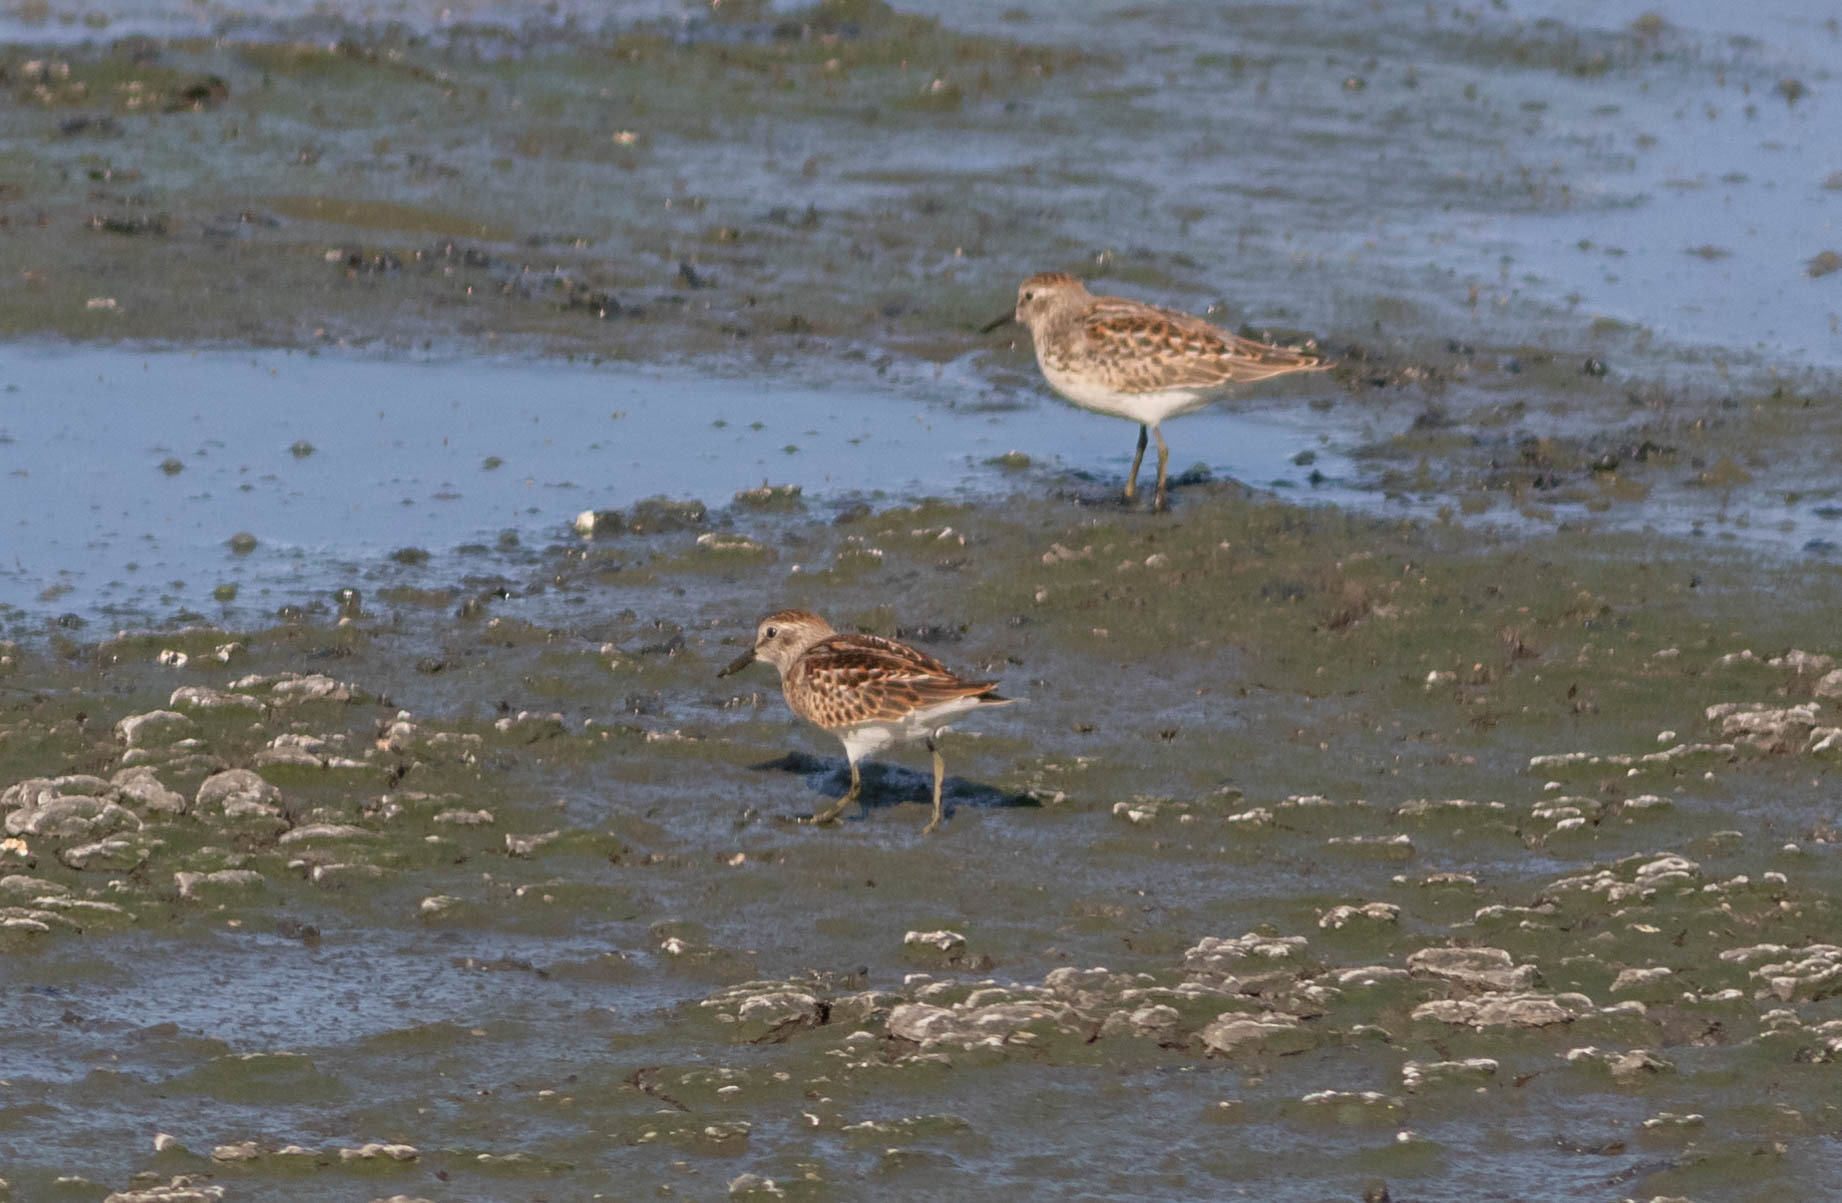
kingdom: Animalia
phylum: Chordata
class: Aves
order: Charadriiformes
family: Scolopacidae
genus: Calidris
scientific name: Calidris minutilla
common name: Least sandpiper
